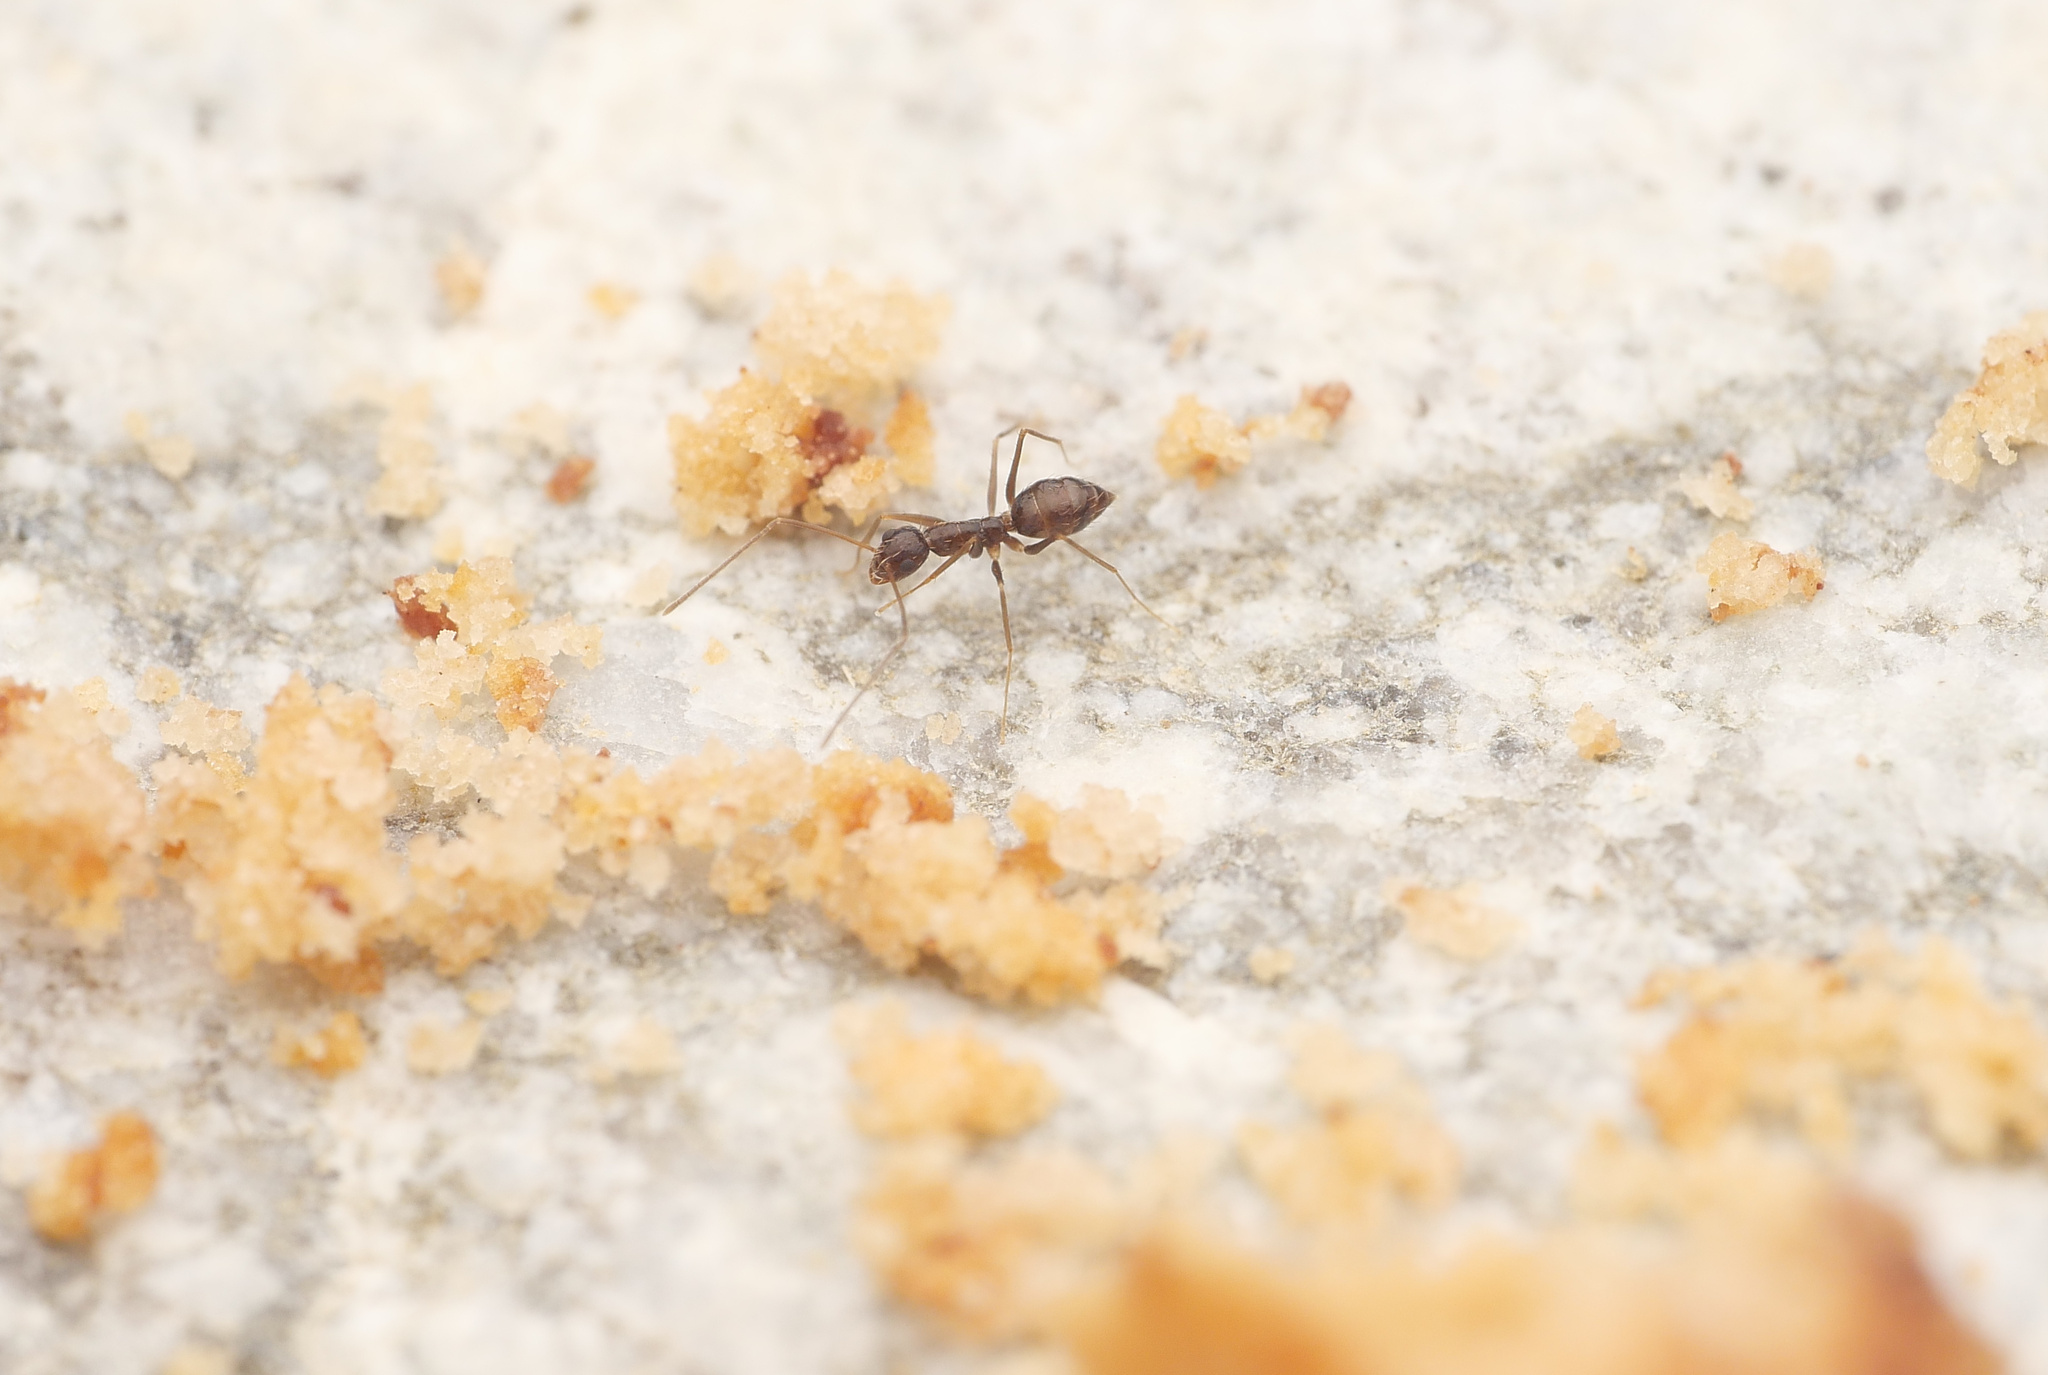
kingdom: Animalia
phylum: Arthropoda
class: Insecta
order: Hymenoptera
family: Formicidae
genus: Paratrechina
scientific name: Paratrechina longicornis
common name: Longhorned crazy ant
